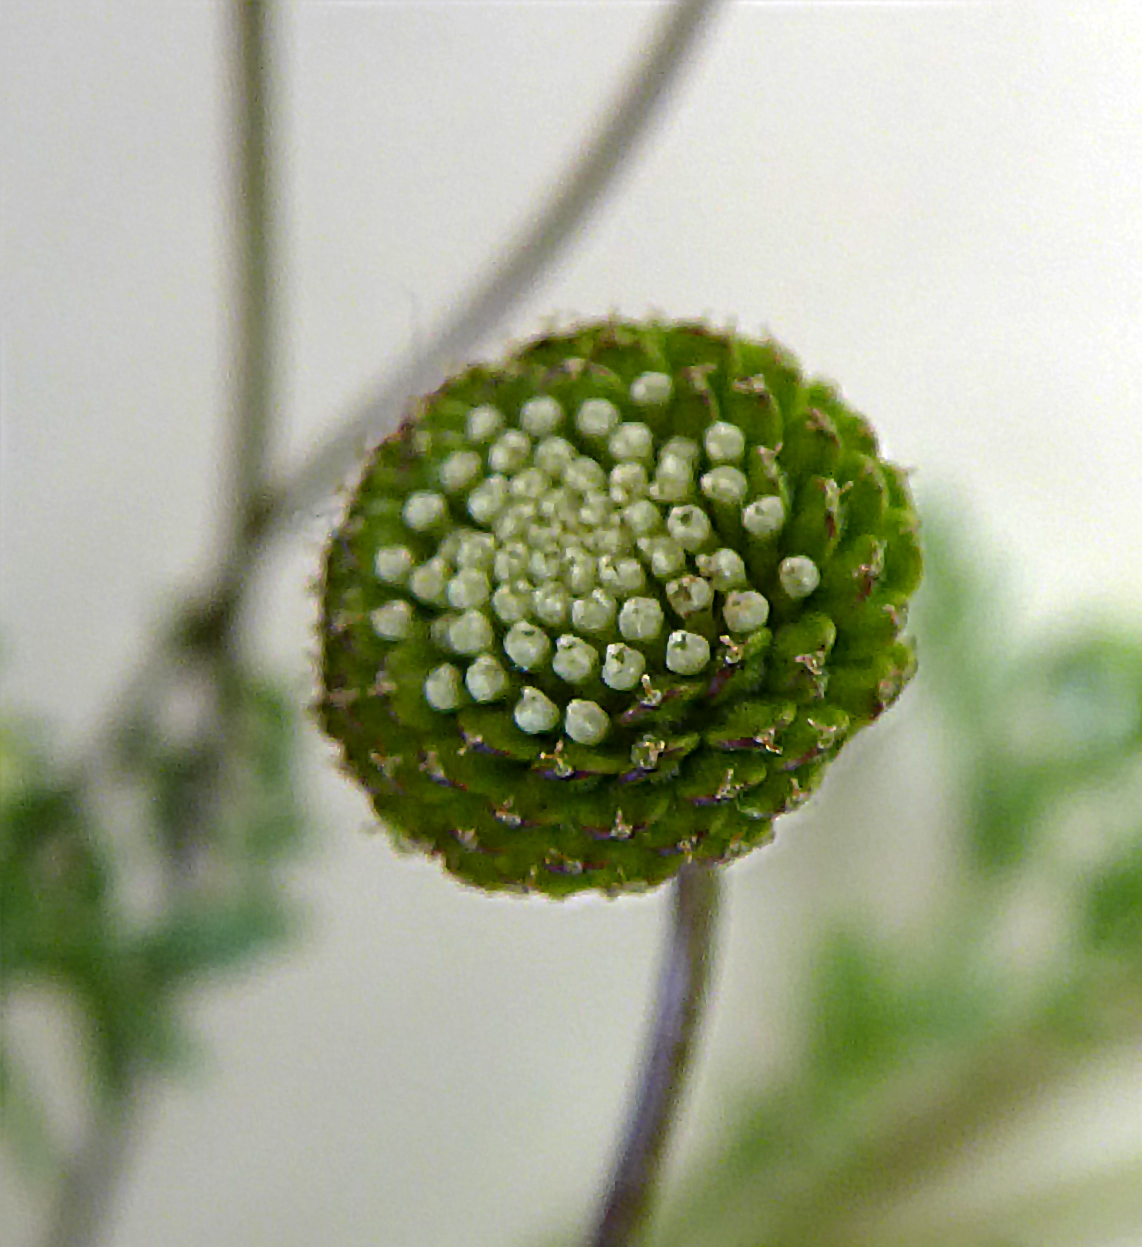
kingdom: Plantae
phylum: Tracheophyta
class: Magnoliopsida
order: Asterales
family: Asteraceae
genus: Cotula
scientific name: Cotula australis
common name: Australian waterbuttons
